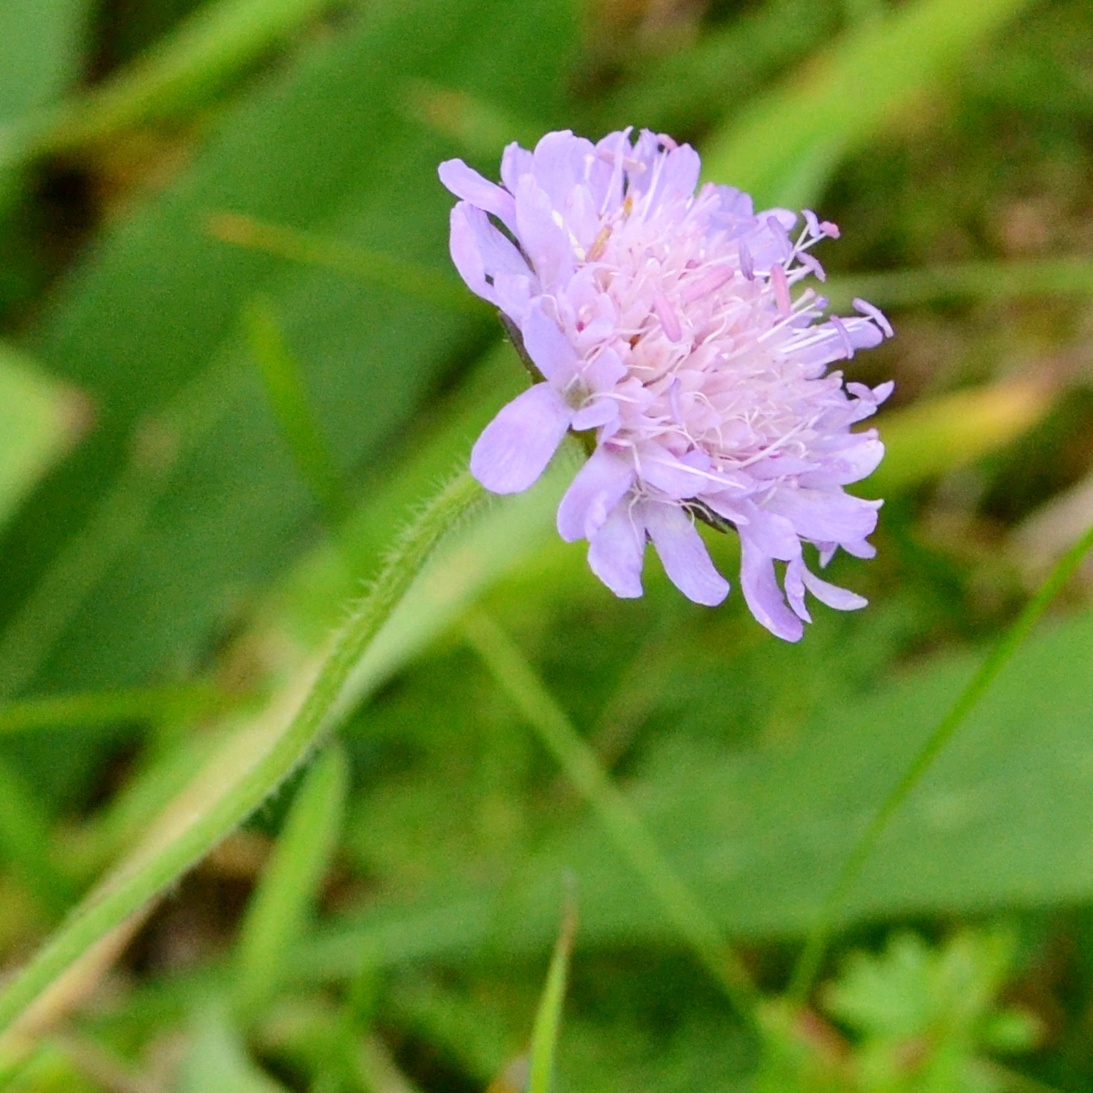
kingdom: Plantae
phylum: Tracheophyta
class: Magnoliopsida
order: Dipsacales
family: Caprifoliaceae
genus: Knautia
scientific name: Knautia arvensis
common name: Field scabiosa
